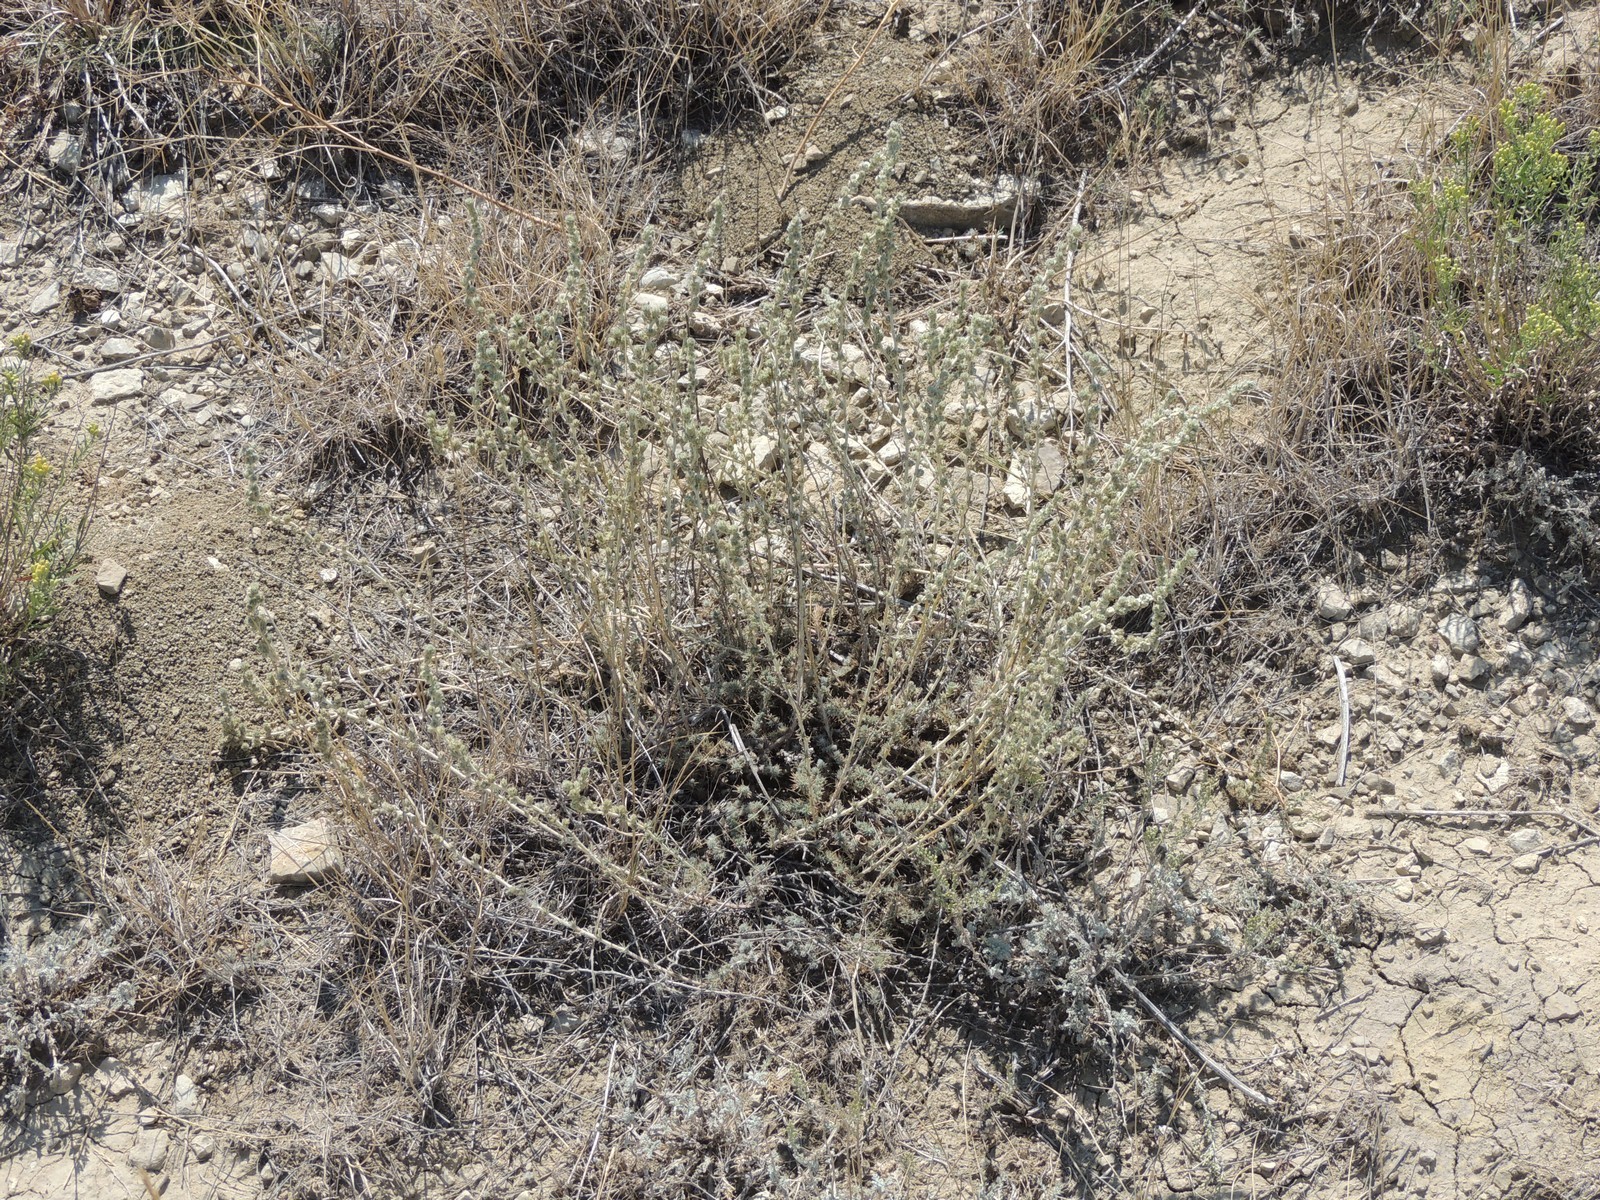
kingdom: Plantae
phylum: Tracheophyta
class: Magnoliopsida
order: Caryophyllales
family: Amaranthaceae
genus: Camphorosma
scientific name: Camphorosma monspeliaca
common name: Camphorfume
